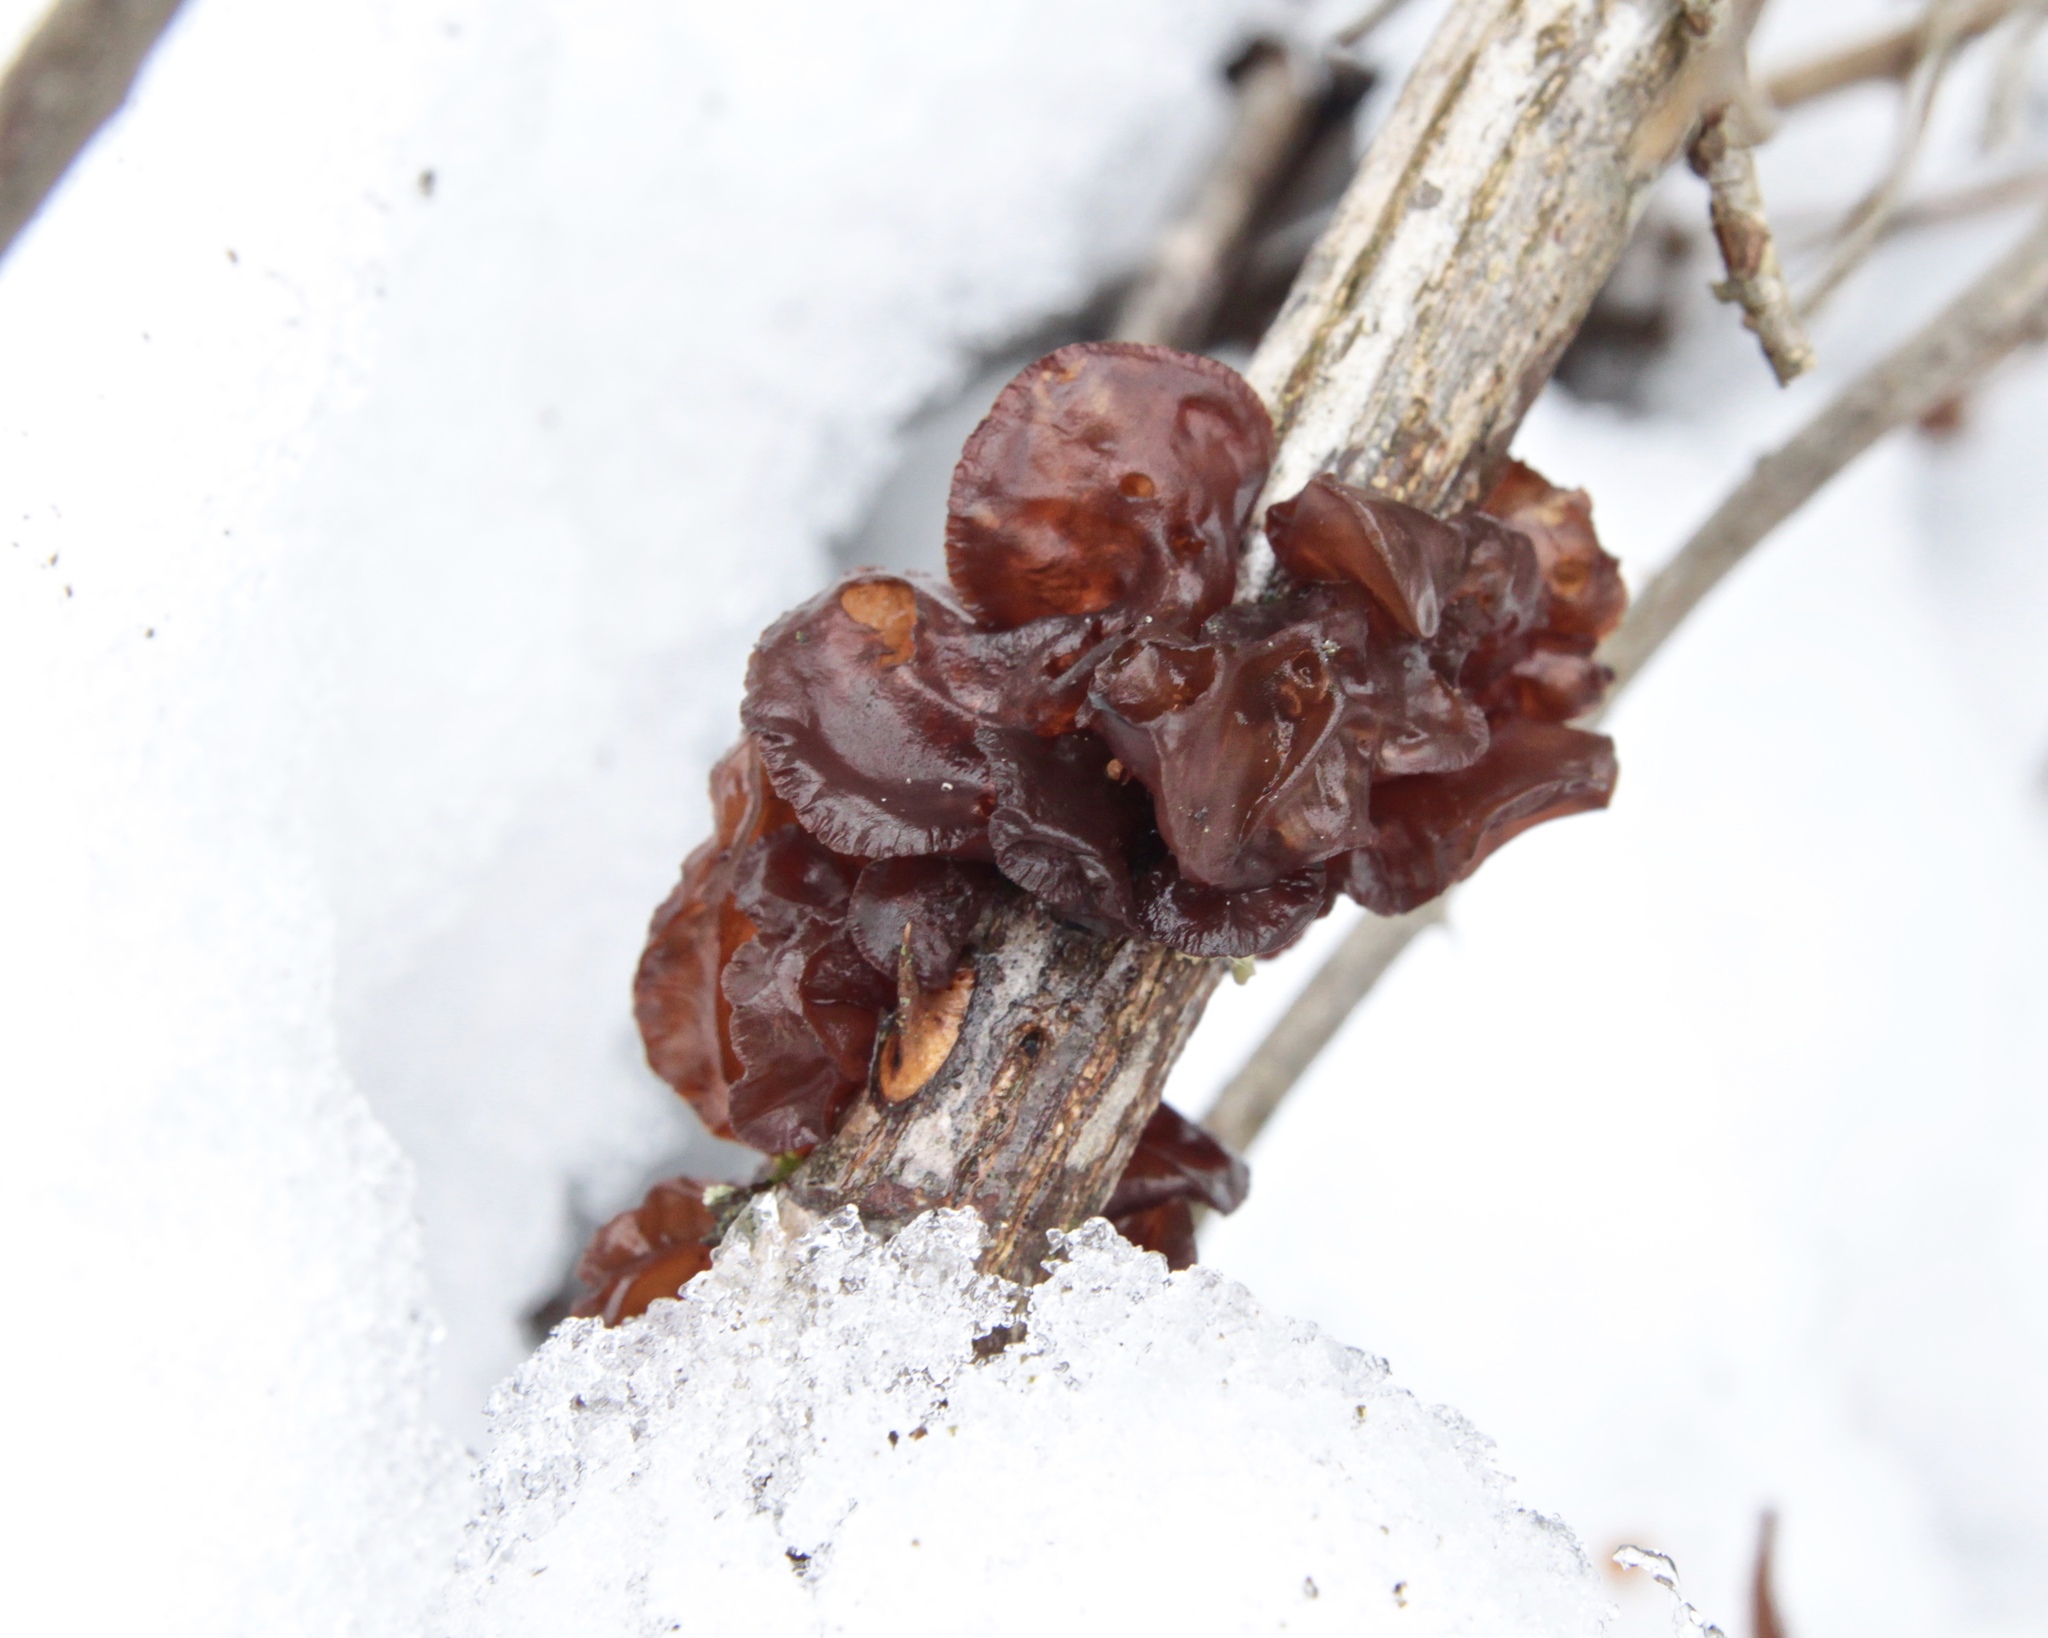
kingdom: Fungi
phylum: Basidiomycota
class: Agaricomycetes
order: Auriculariales
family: Auriculariaceae
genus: Exidia
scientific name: Exidia
